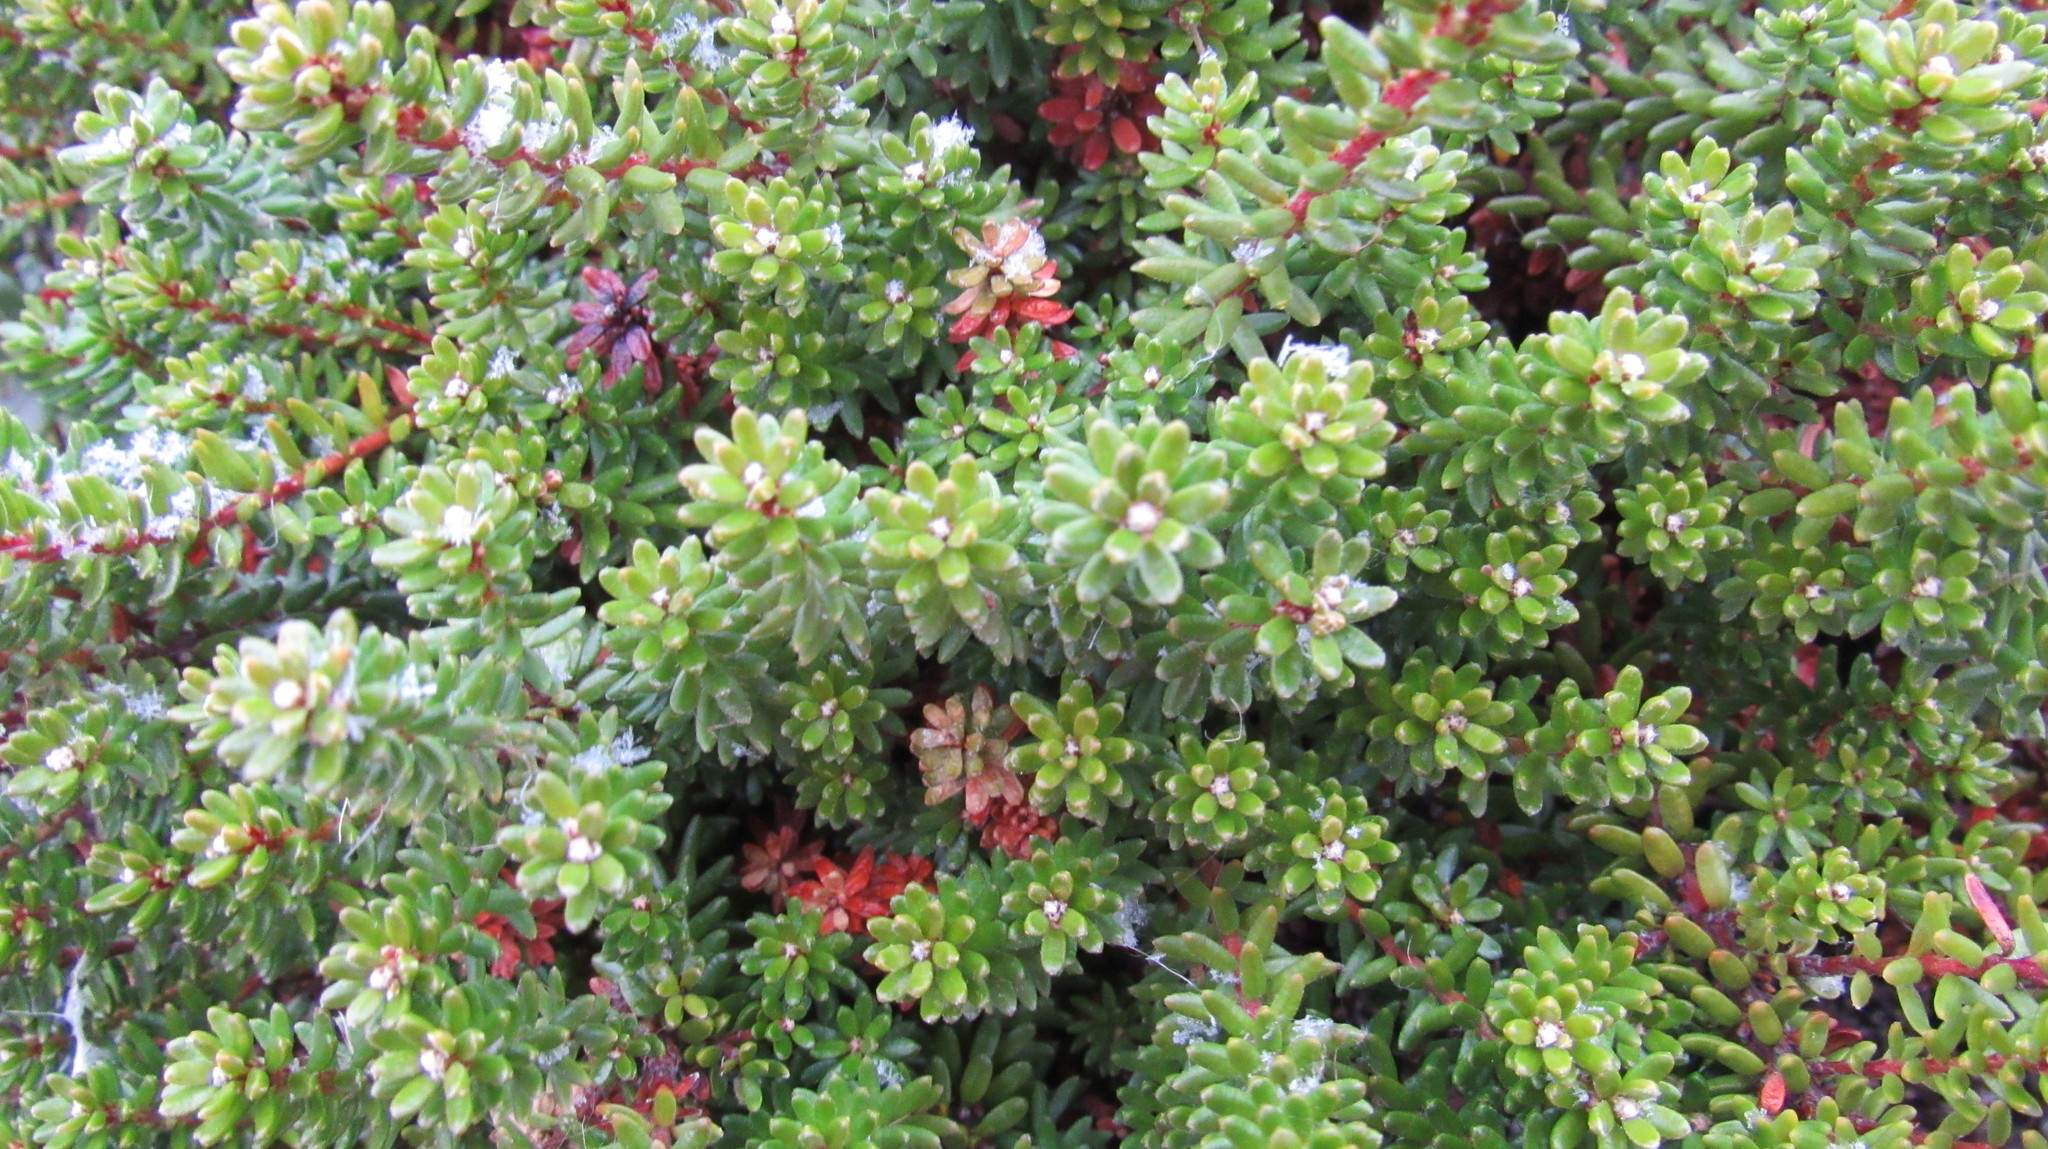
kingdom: Plantae
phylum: Tracheophyta
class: Magnoliopsida
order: Ericales
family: Ericaceae
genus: Empetrum
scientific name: Empetrum nigrum
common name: Black crowberry
